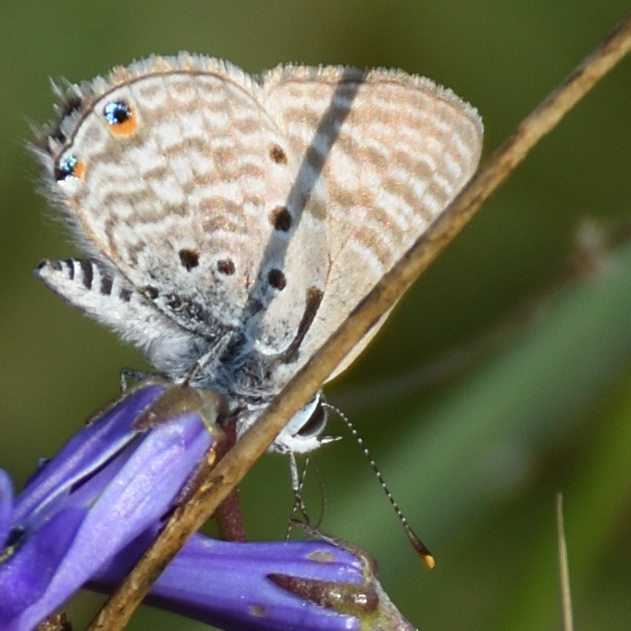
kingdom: Animalia
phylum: Arthropoda
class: Insecta
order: Lepidoptera
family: Lycaenidae
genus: Anthene
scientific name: Anthene amarah
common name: Black-striped hairtail
